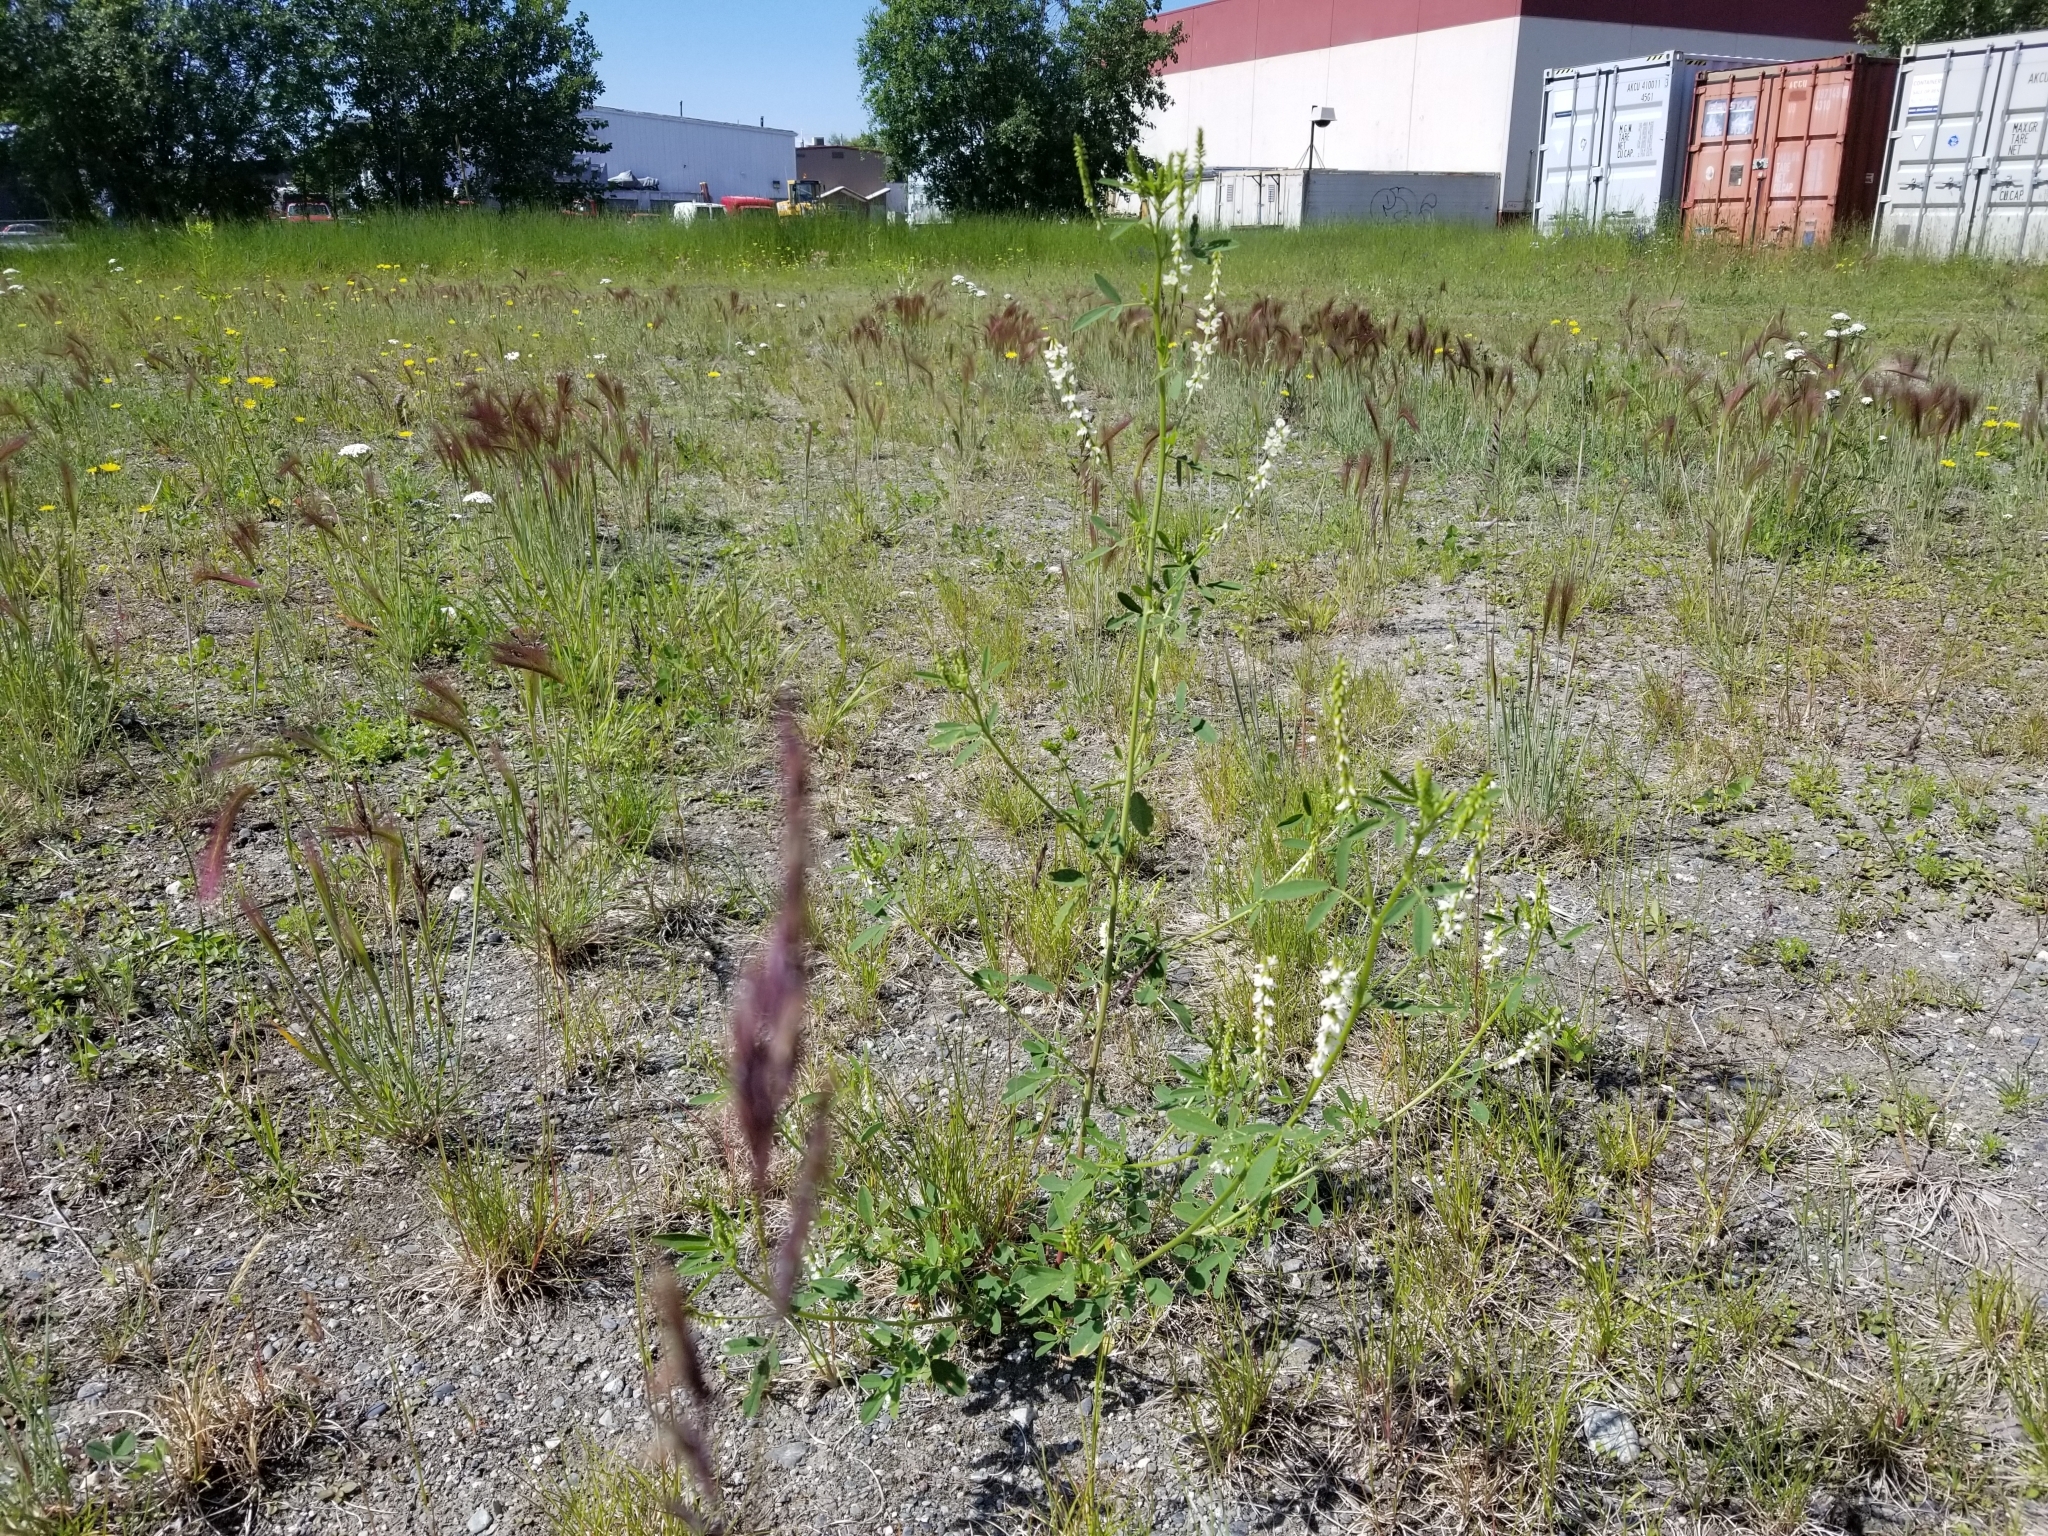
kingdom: Plantae
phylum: Tracheophyta
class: Magnoliopsida
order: Fabales
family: Fabaceae
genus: Melilotus
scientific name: Melilotus albus
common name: White melilot
